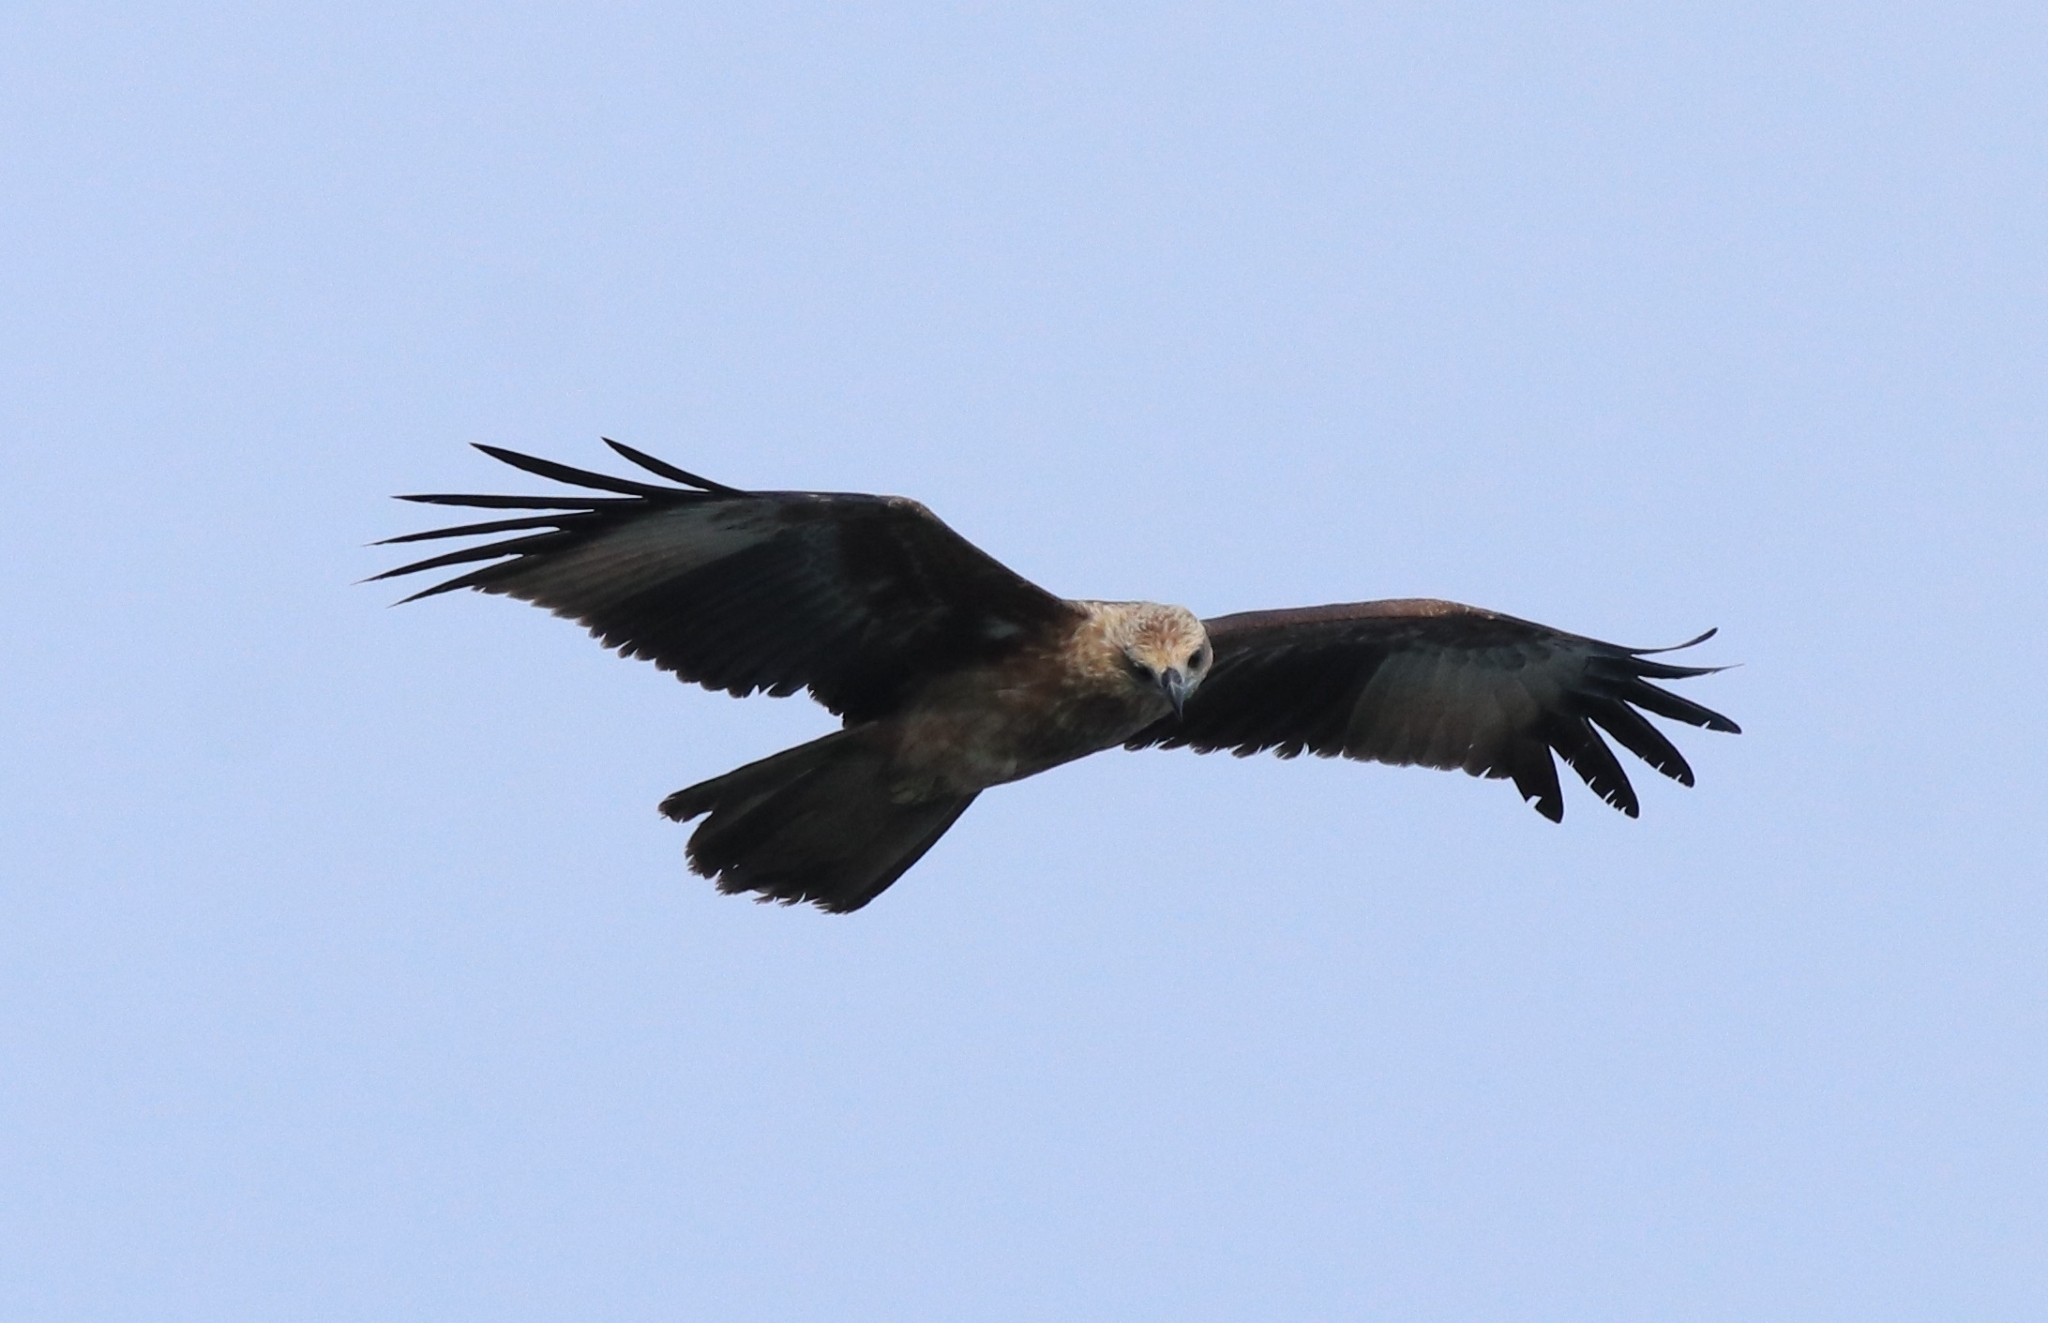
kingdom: Animalia
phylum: Chordata
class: Aves
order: Accipitriformes
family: Accipitridae
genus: Haliastur
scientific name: Haliastur indus
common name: Brahminy kite
